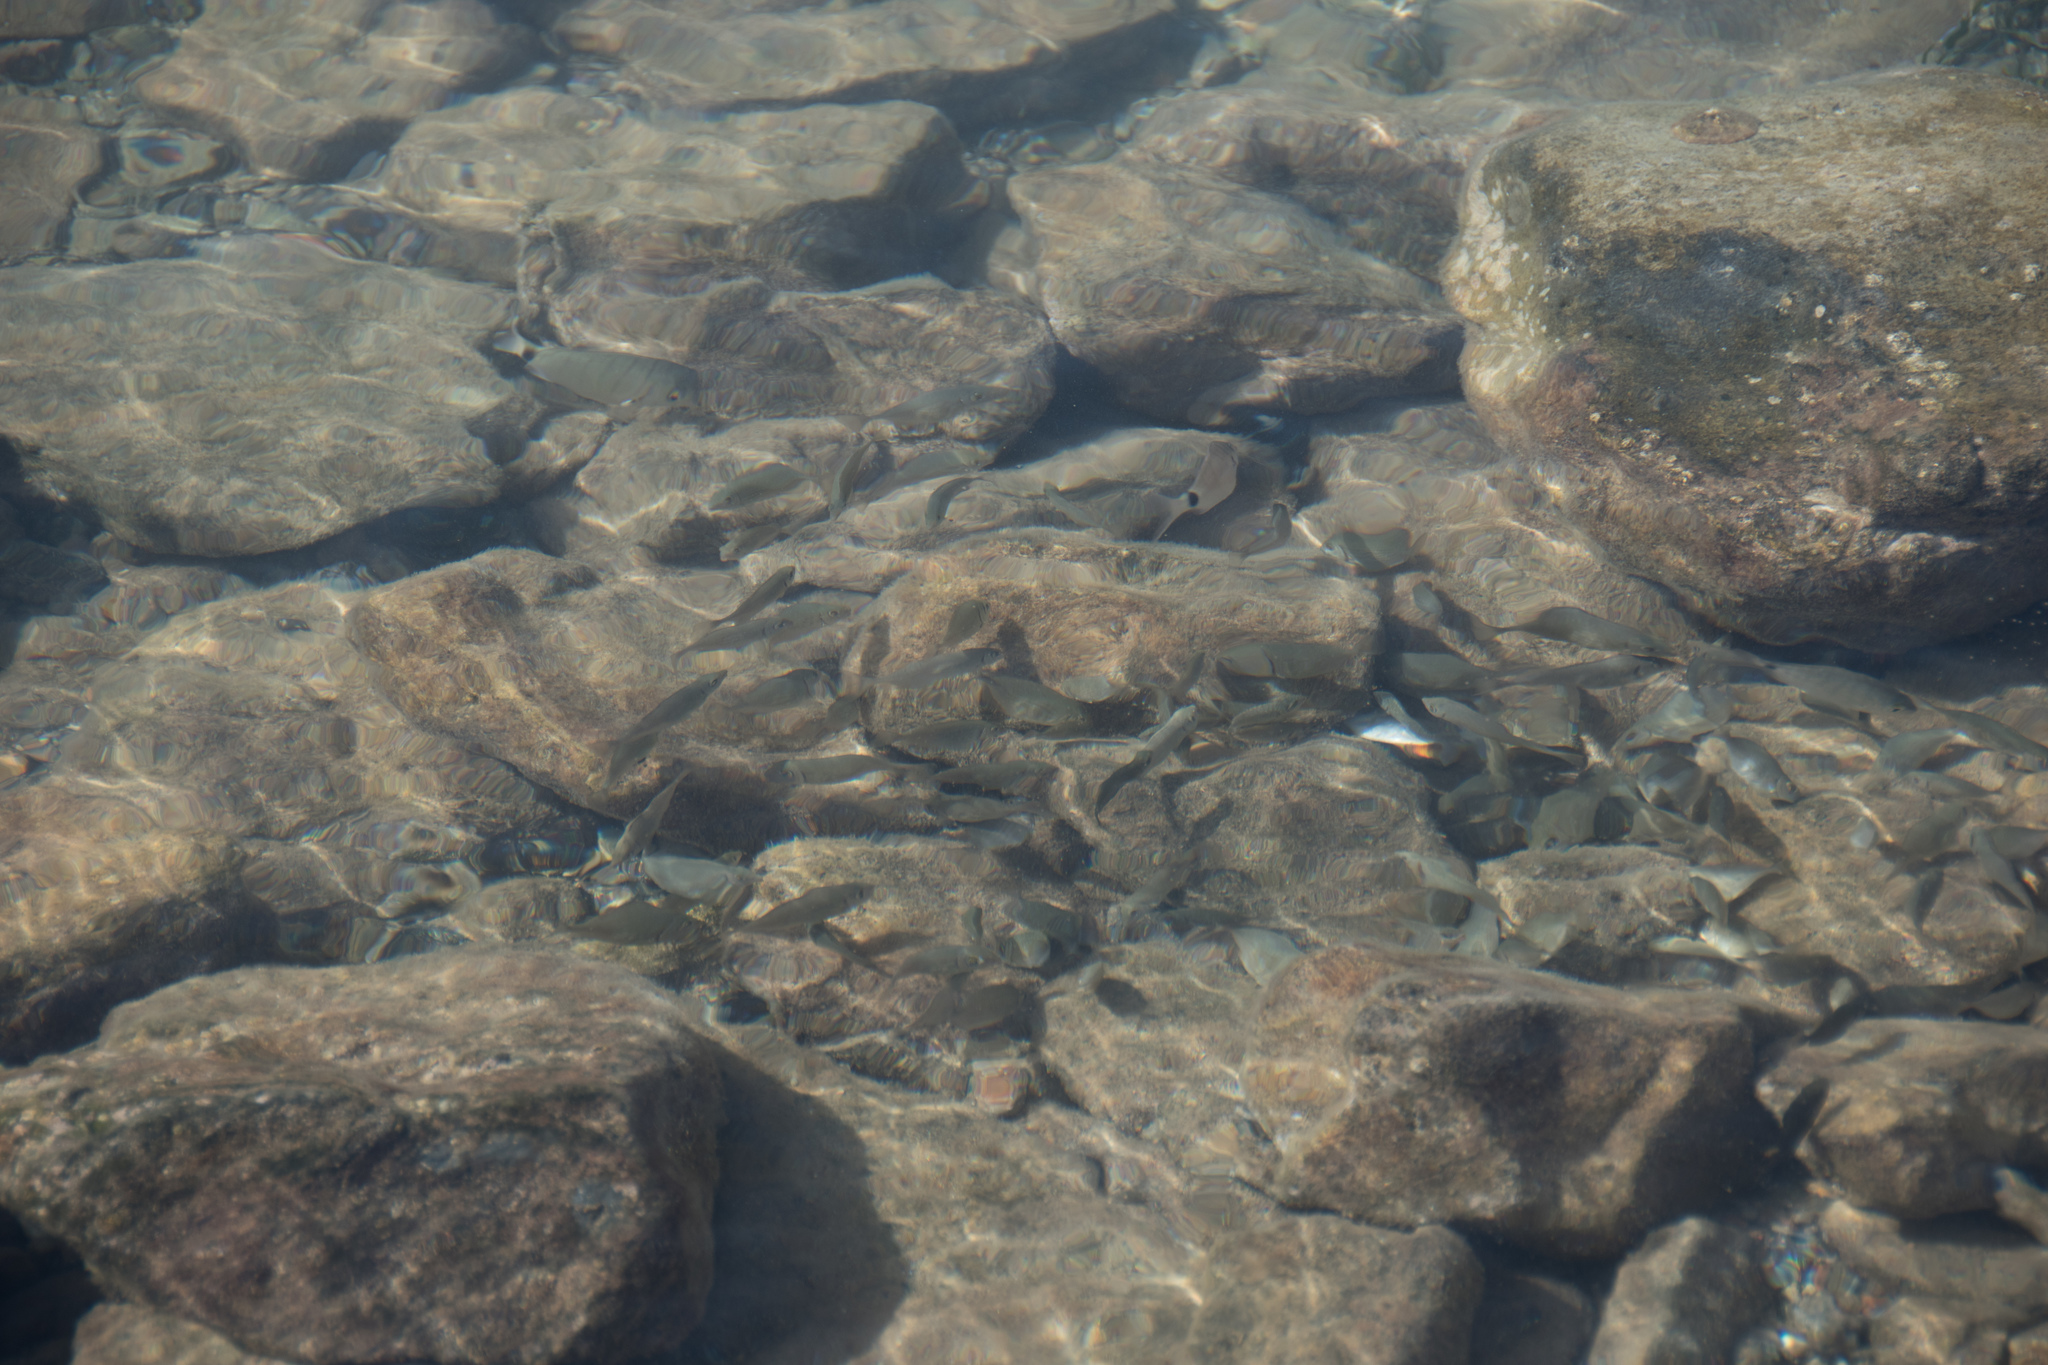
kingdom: Animalia
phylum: Chordata
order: Perciformes
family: Siganidae
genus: Siganus
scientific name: Siganus rivulatus
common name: Marbled spinefoot
